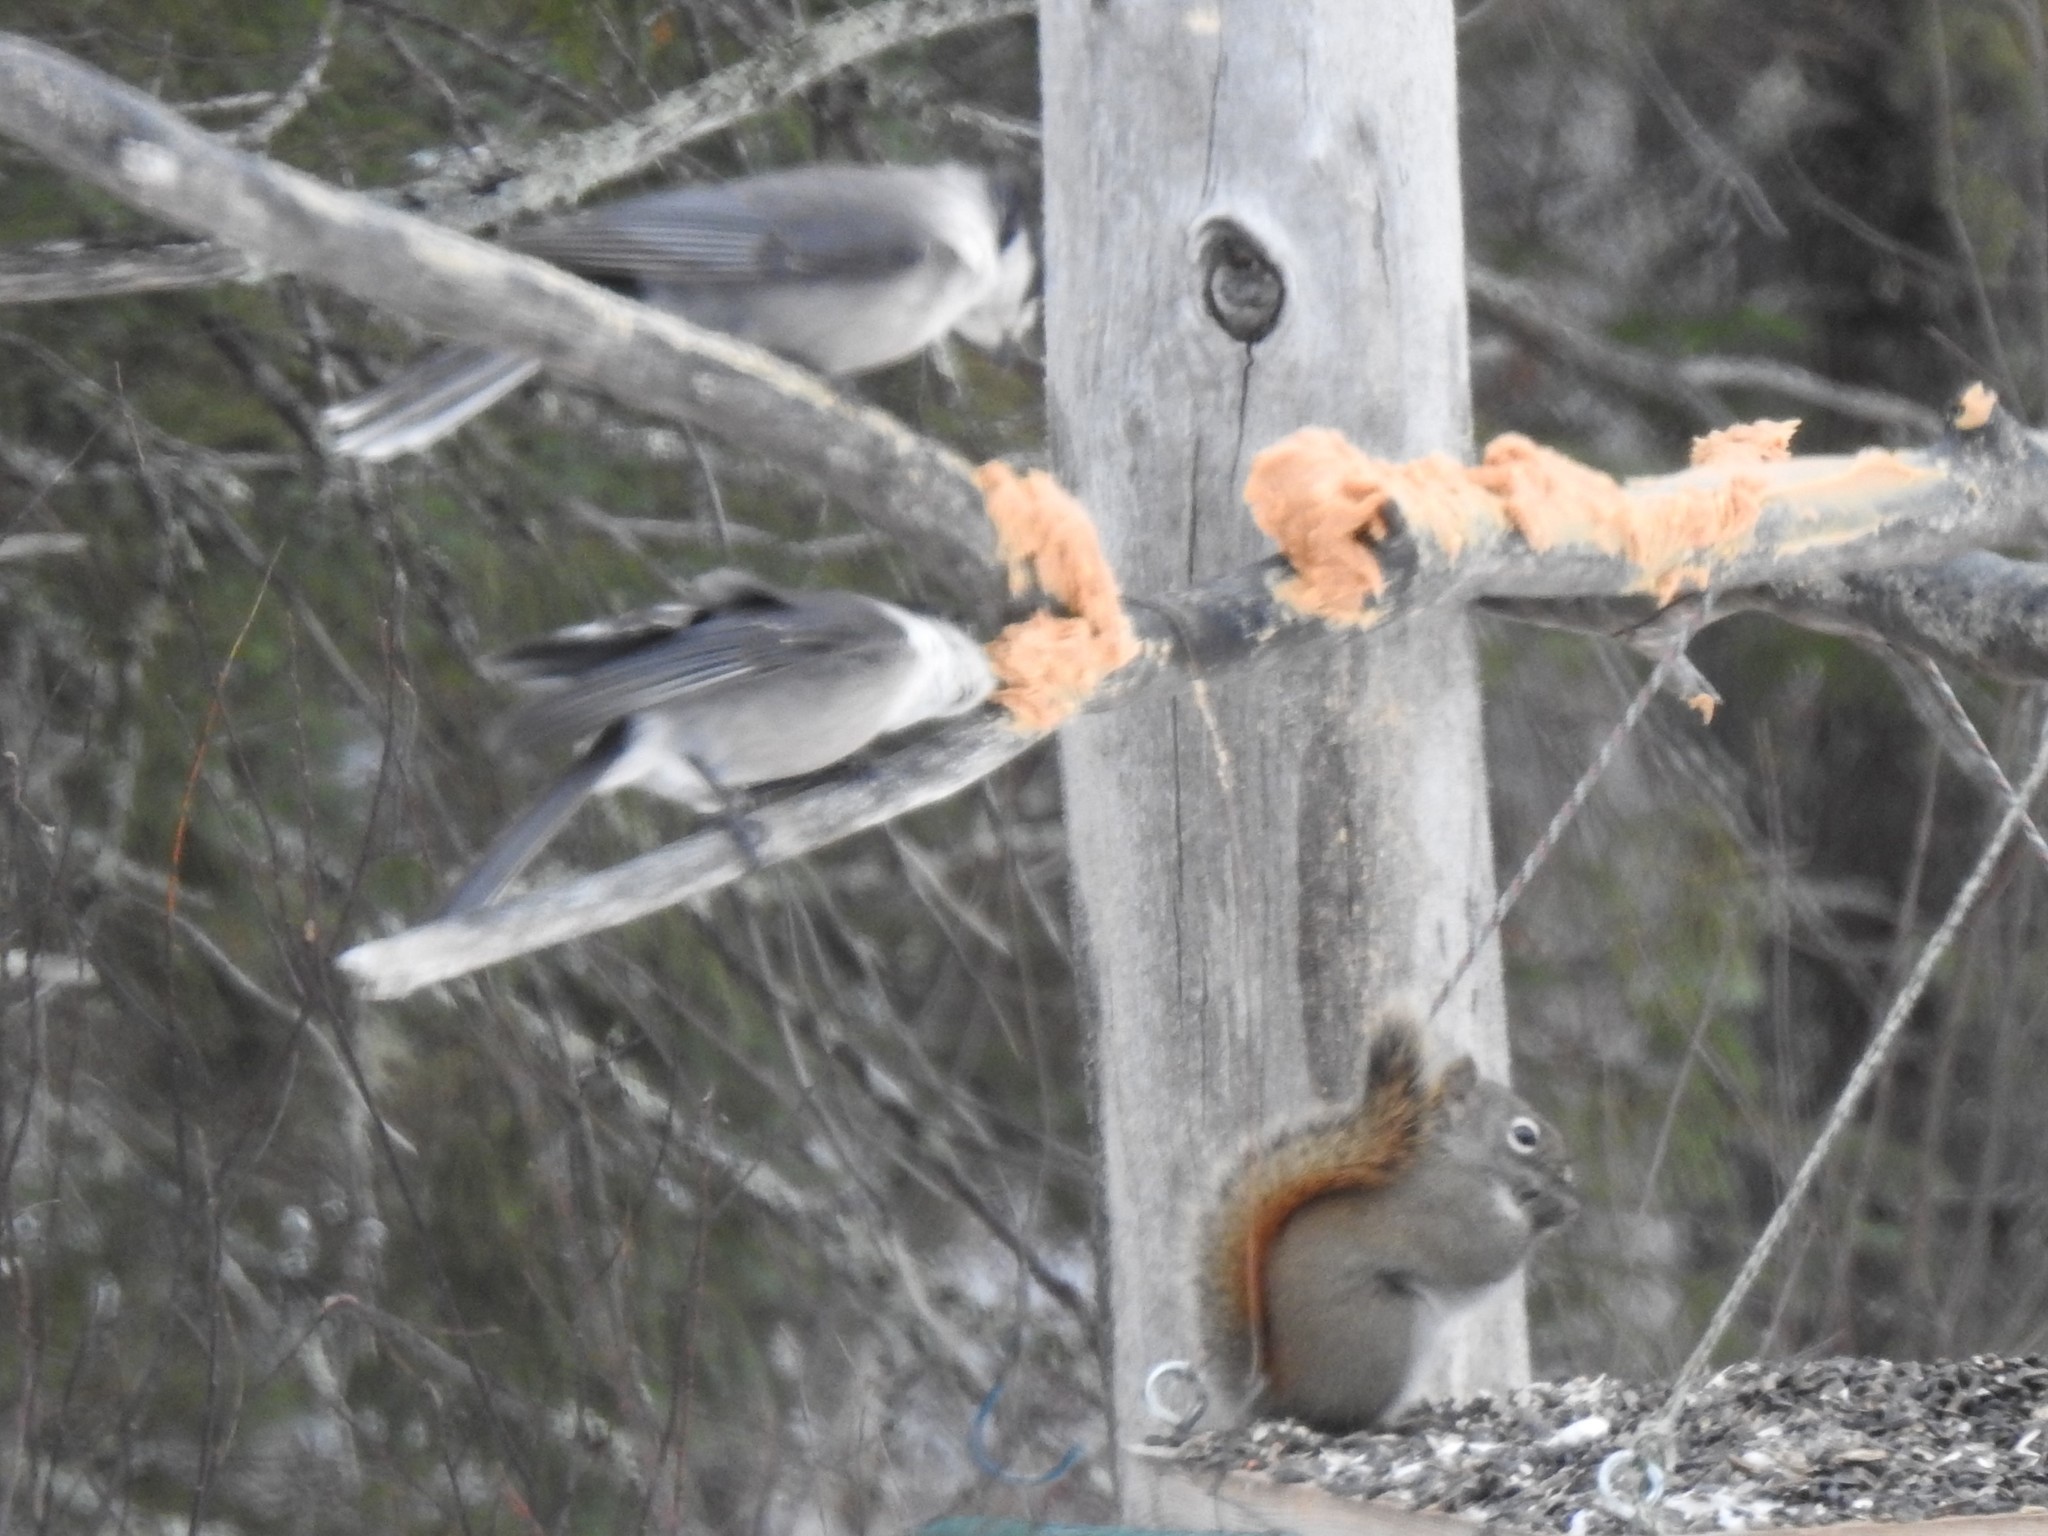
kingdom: Animalia
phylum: Chordata
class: Aves
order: Passeriformes
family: Corvidae
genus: Perisoreus
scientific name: Perisoreus canadensis
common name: Gray jay
